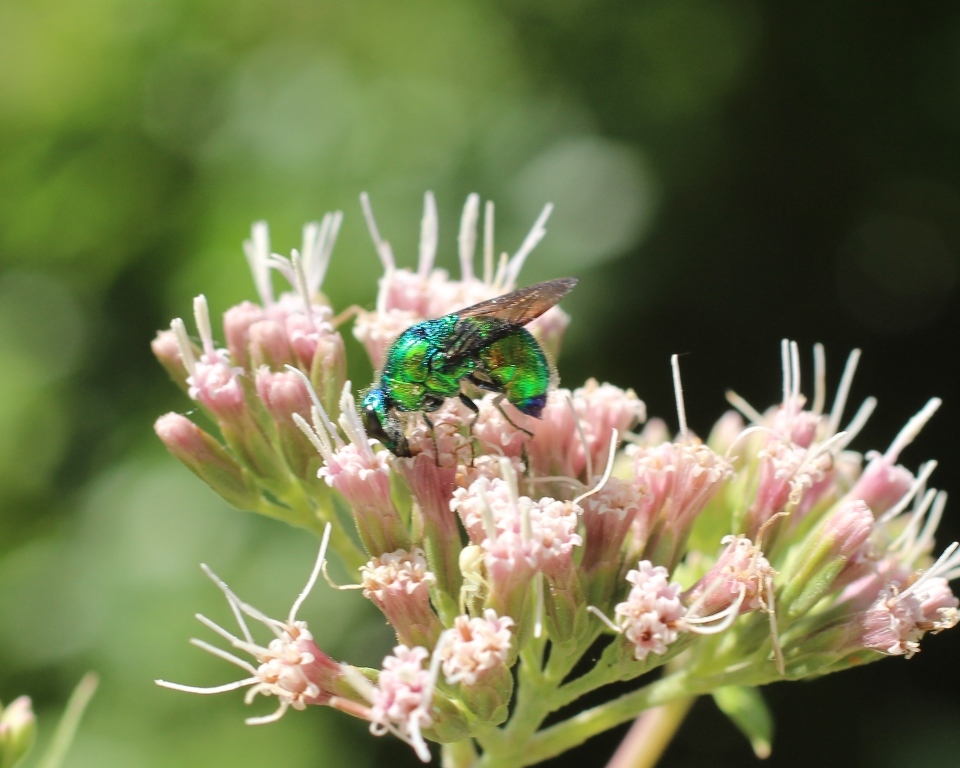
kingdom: Animalia
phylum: Arthropoda
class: Insecta
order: Hymenoptera
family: Chrysididae
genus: Stilbum
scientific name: Stilbum cyanurum
